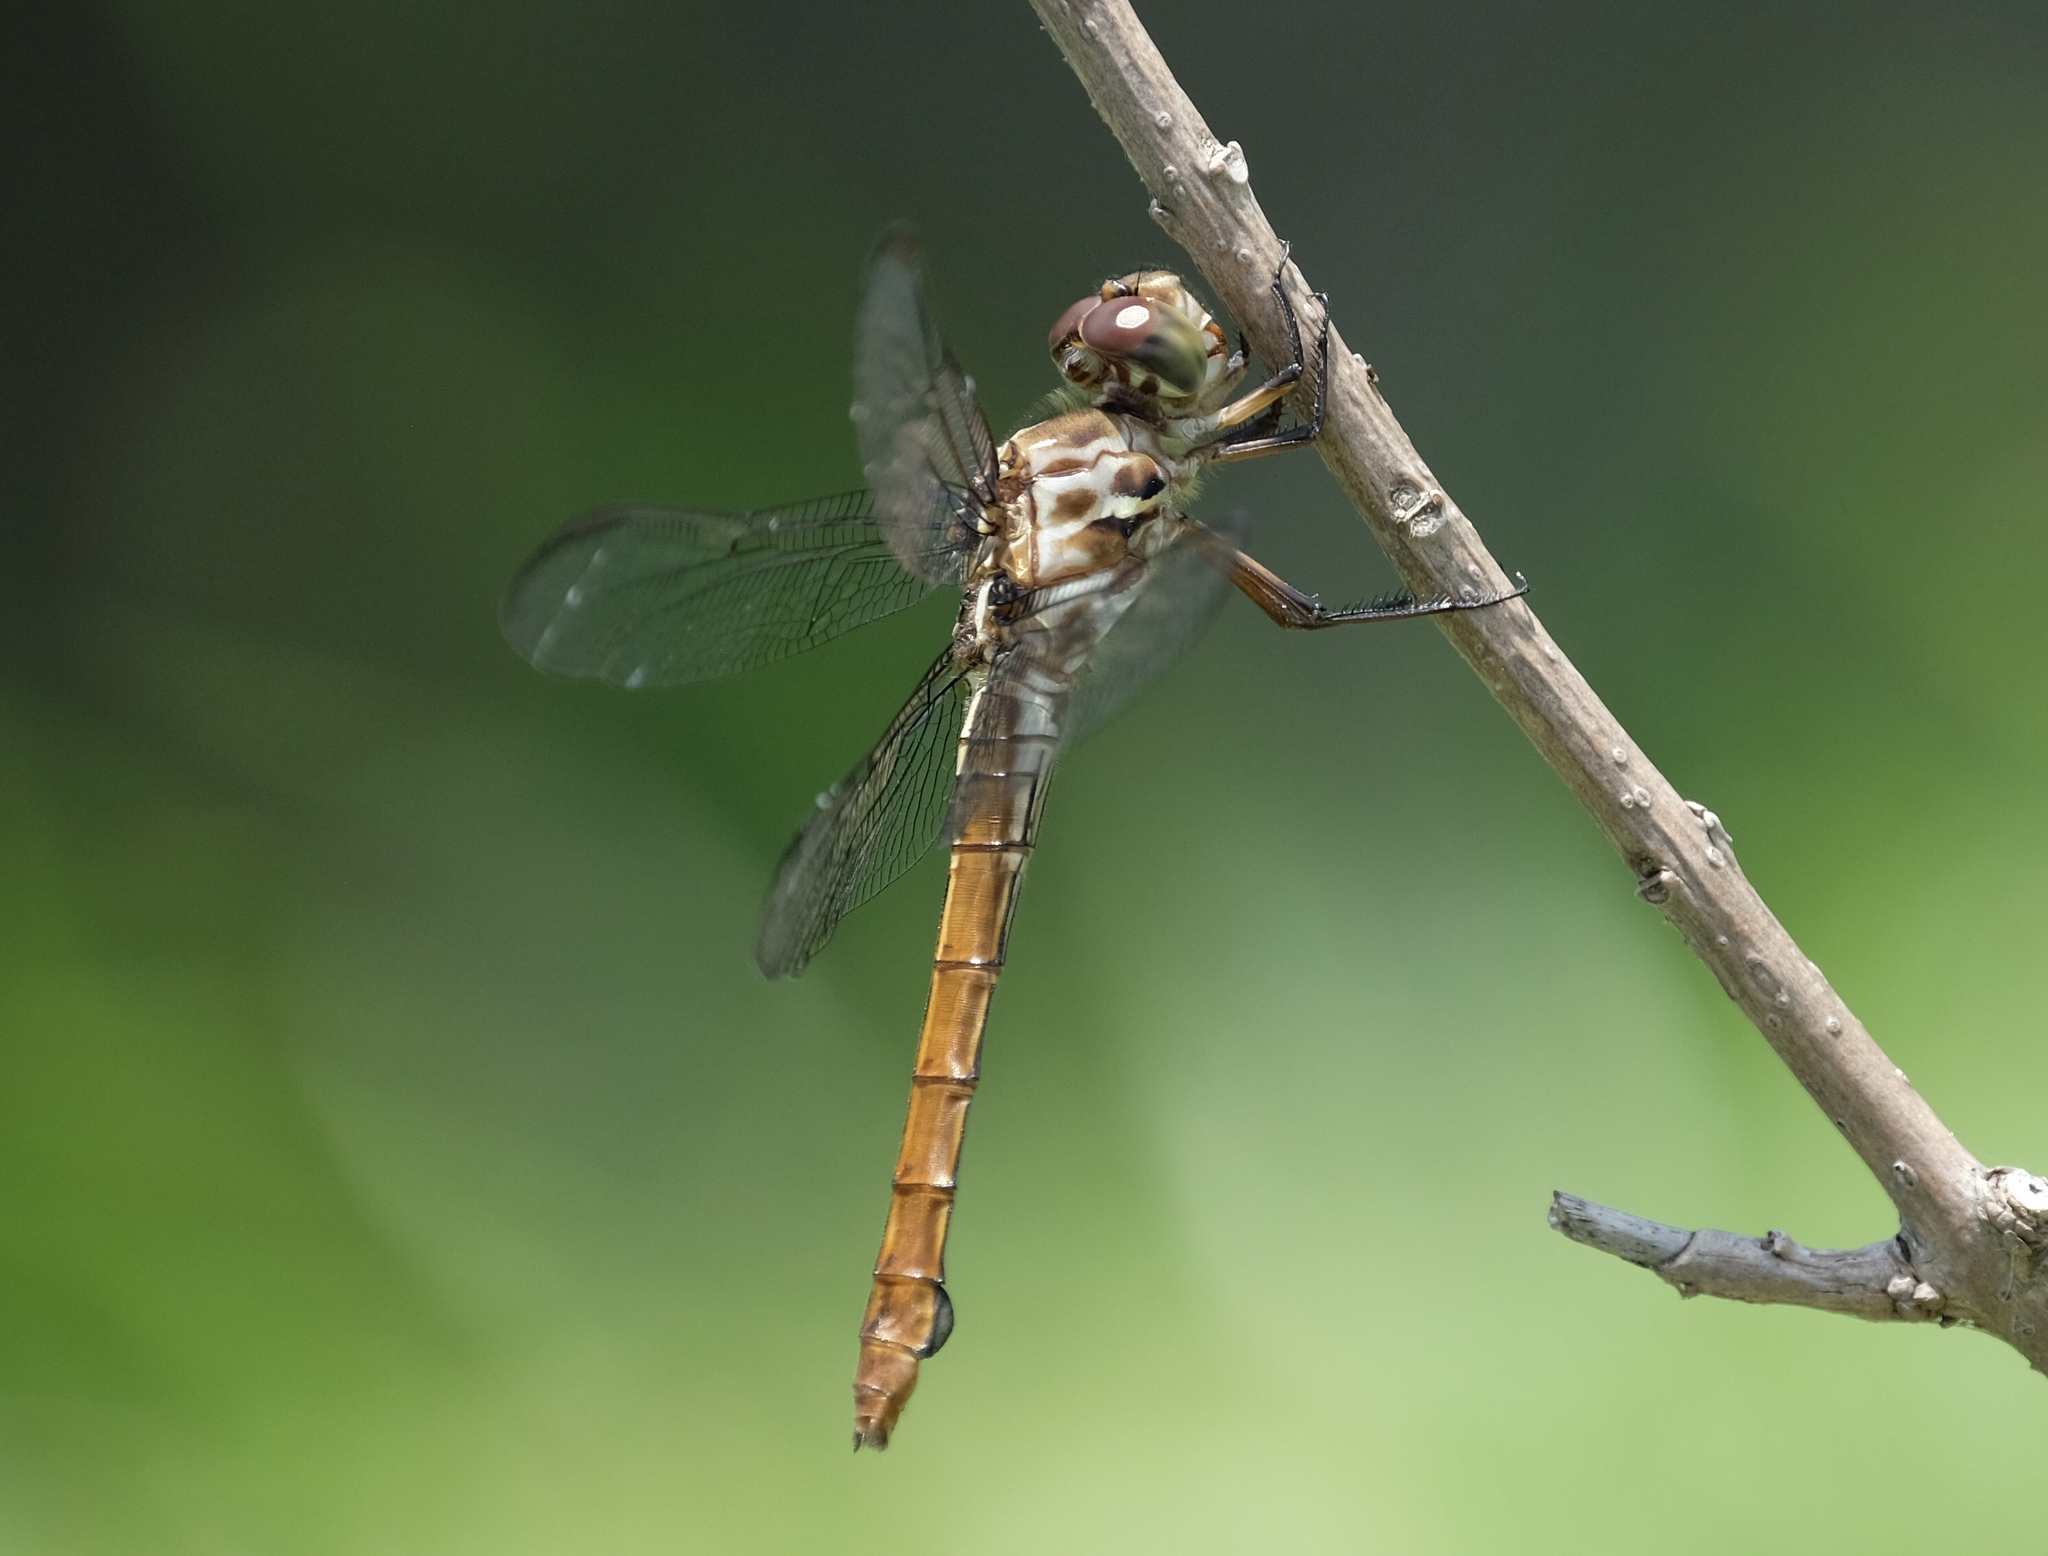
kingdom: Animalia
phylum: Arthropoda
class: Insecta
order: Odonata
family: Libellulidae
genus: Orthemis
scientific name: Orthemis ferruginea
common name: Roseate skimmer
